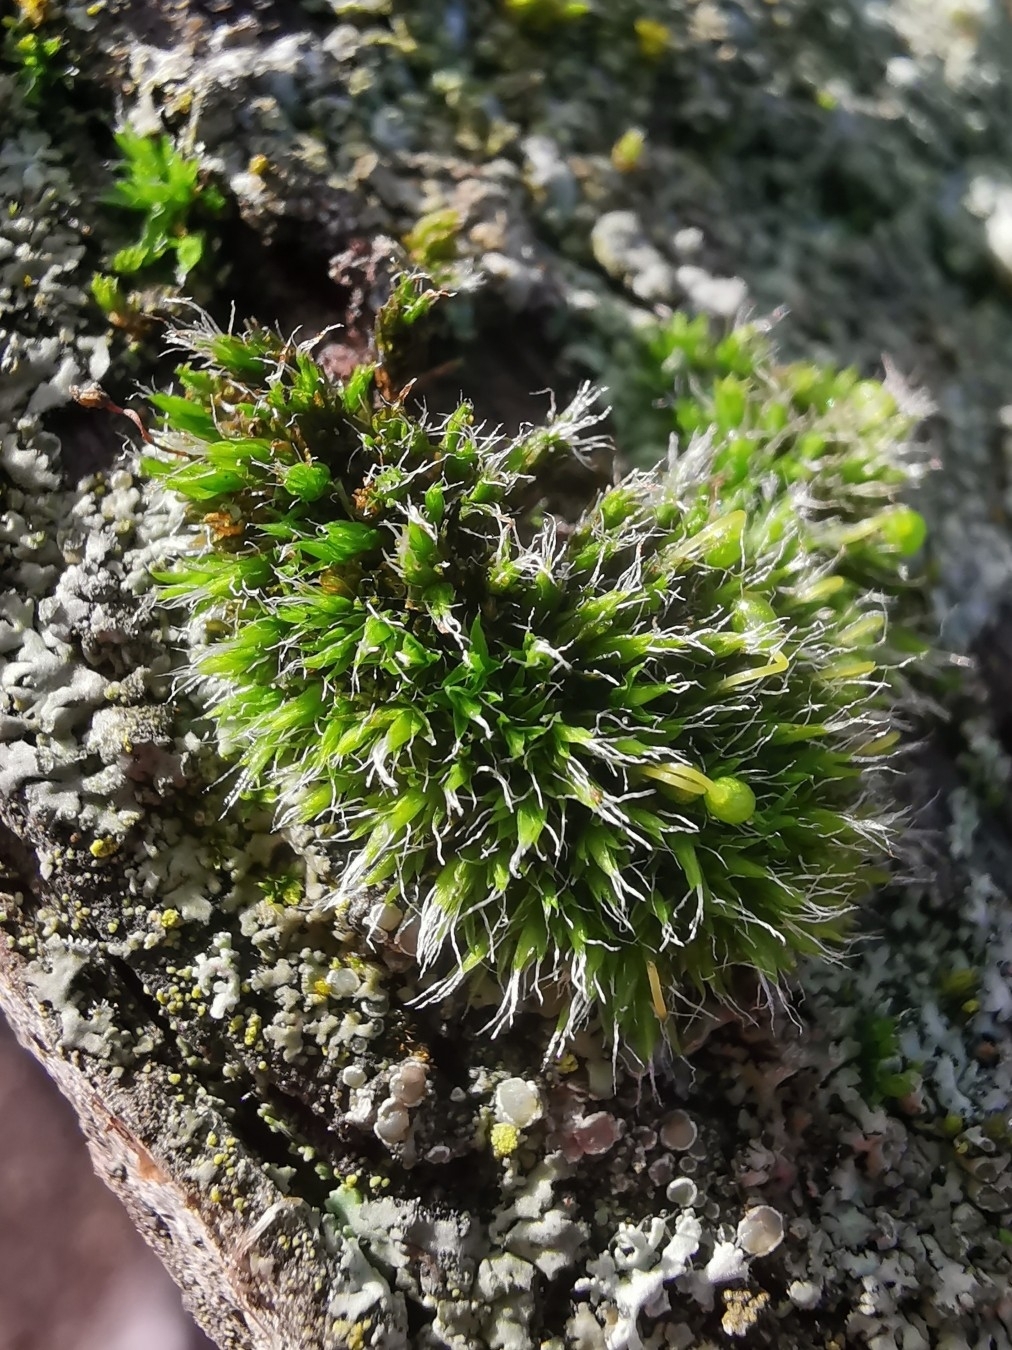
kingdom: Plantae
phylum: Bryophyta
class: Bryopsida
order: Grimmiales
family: Grimmiaceae
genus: Grimmia
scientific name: Grimmia pulvinata
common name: Grey-cushioned grimmia
